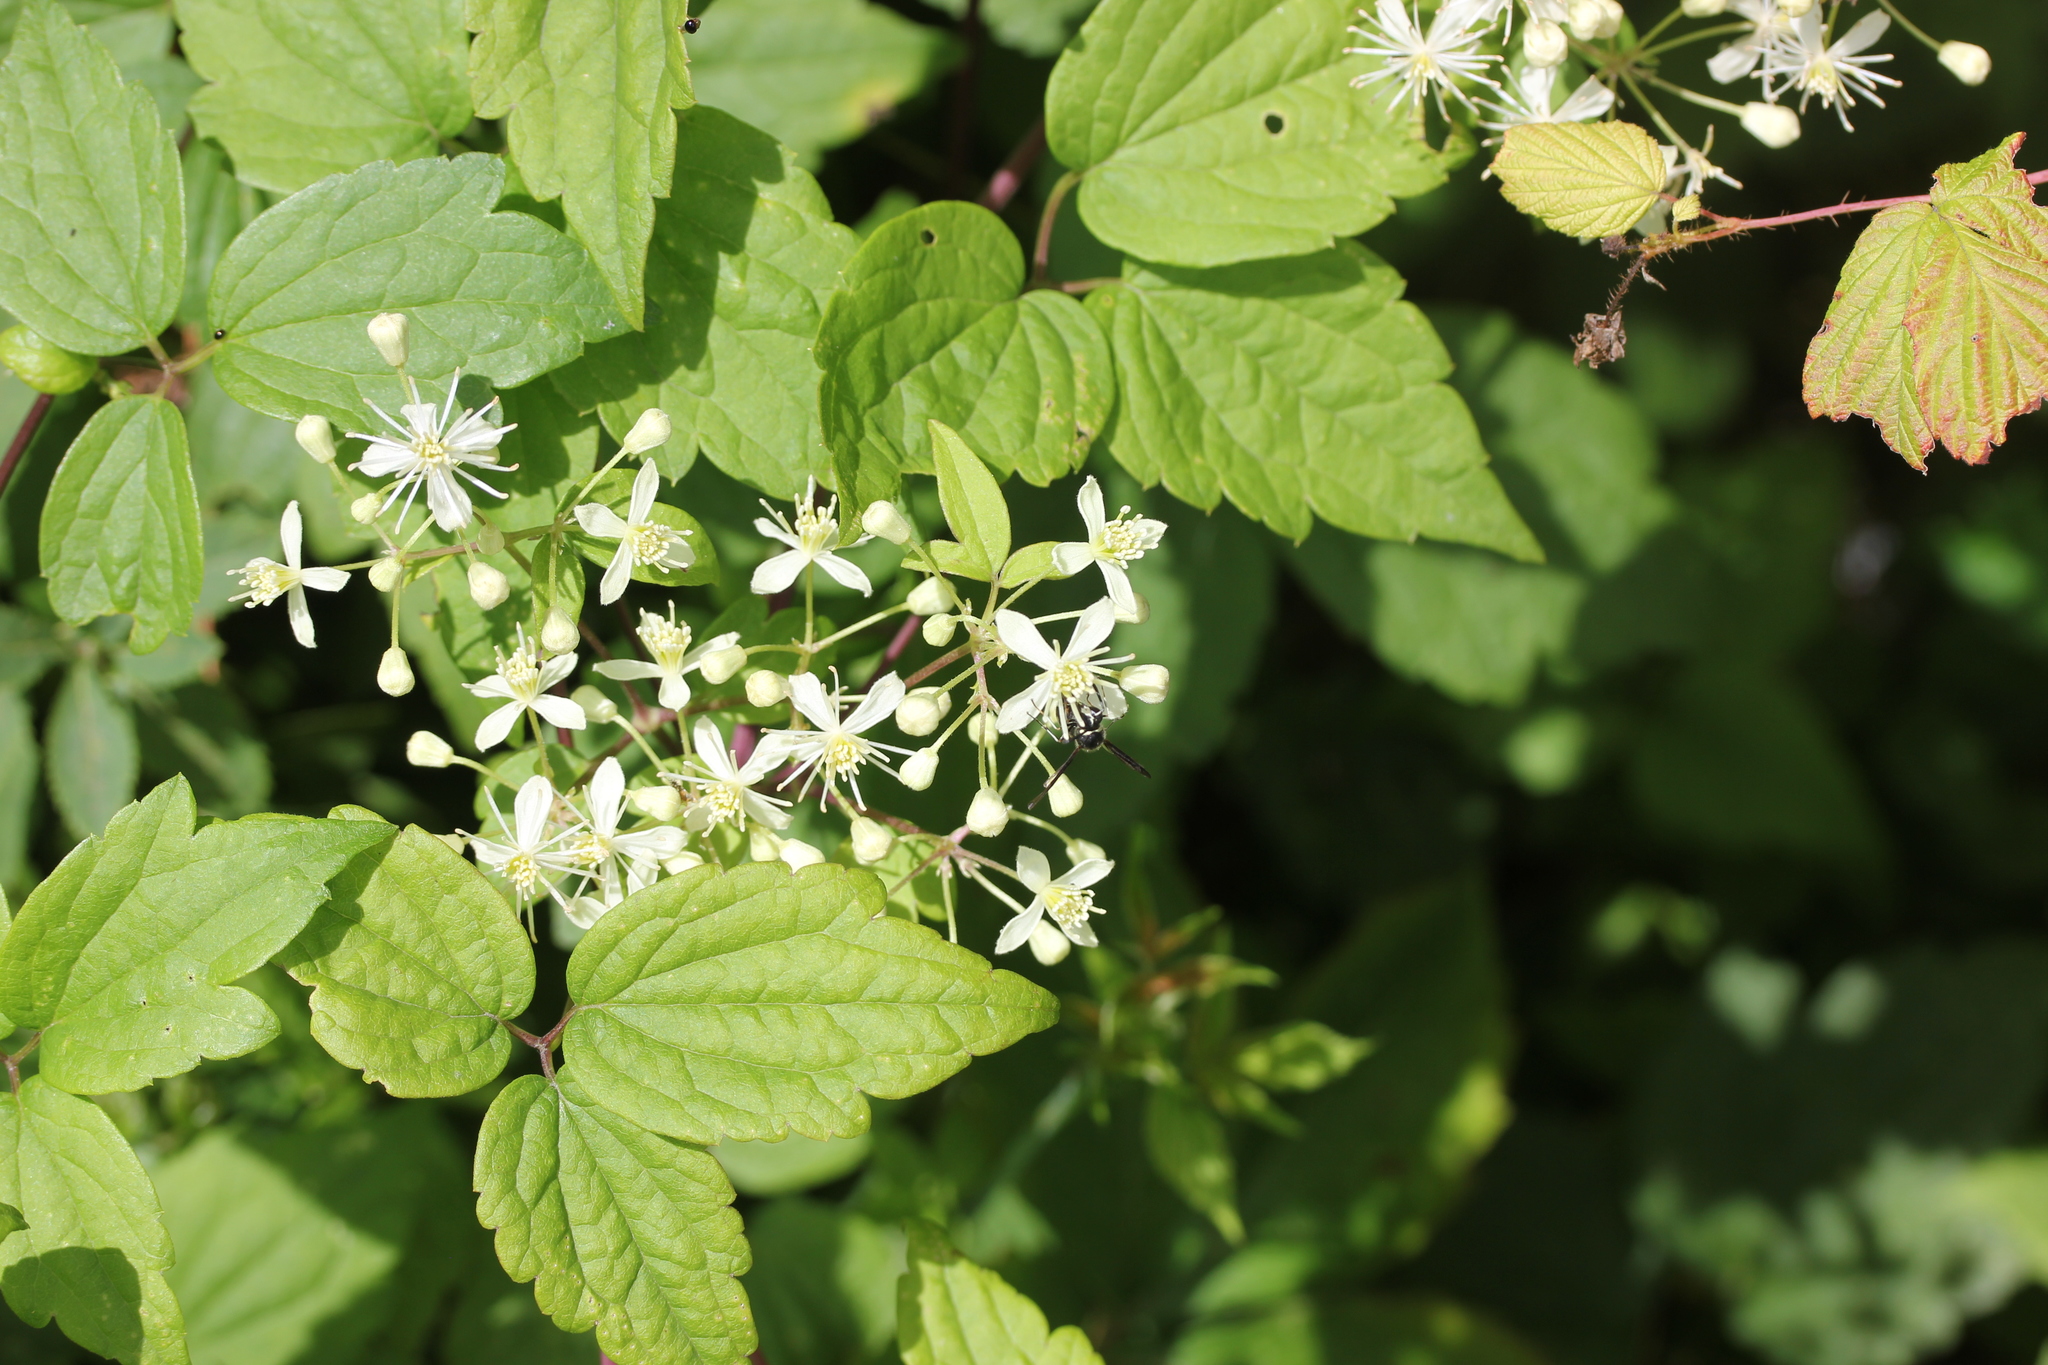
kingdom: Plantae
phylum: Tracheophyta
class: Magnoliopsida
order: Ranunculales
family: Ranunculaceae
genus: Clematis
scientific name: Clematis virginiana
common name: Virgin's-bower
